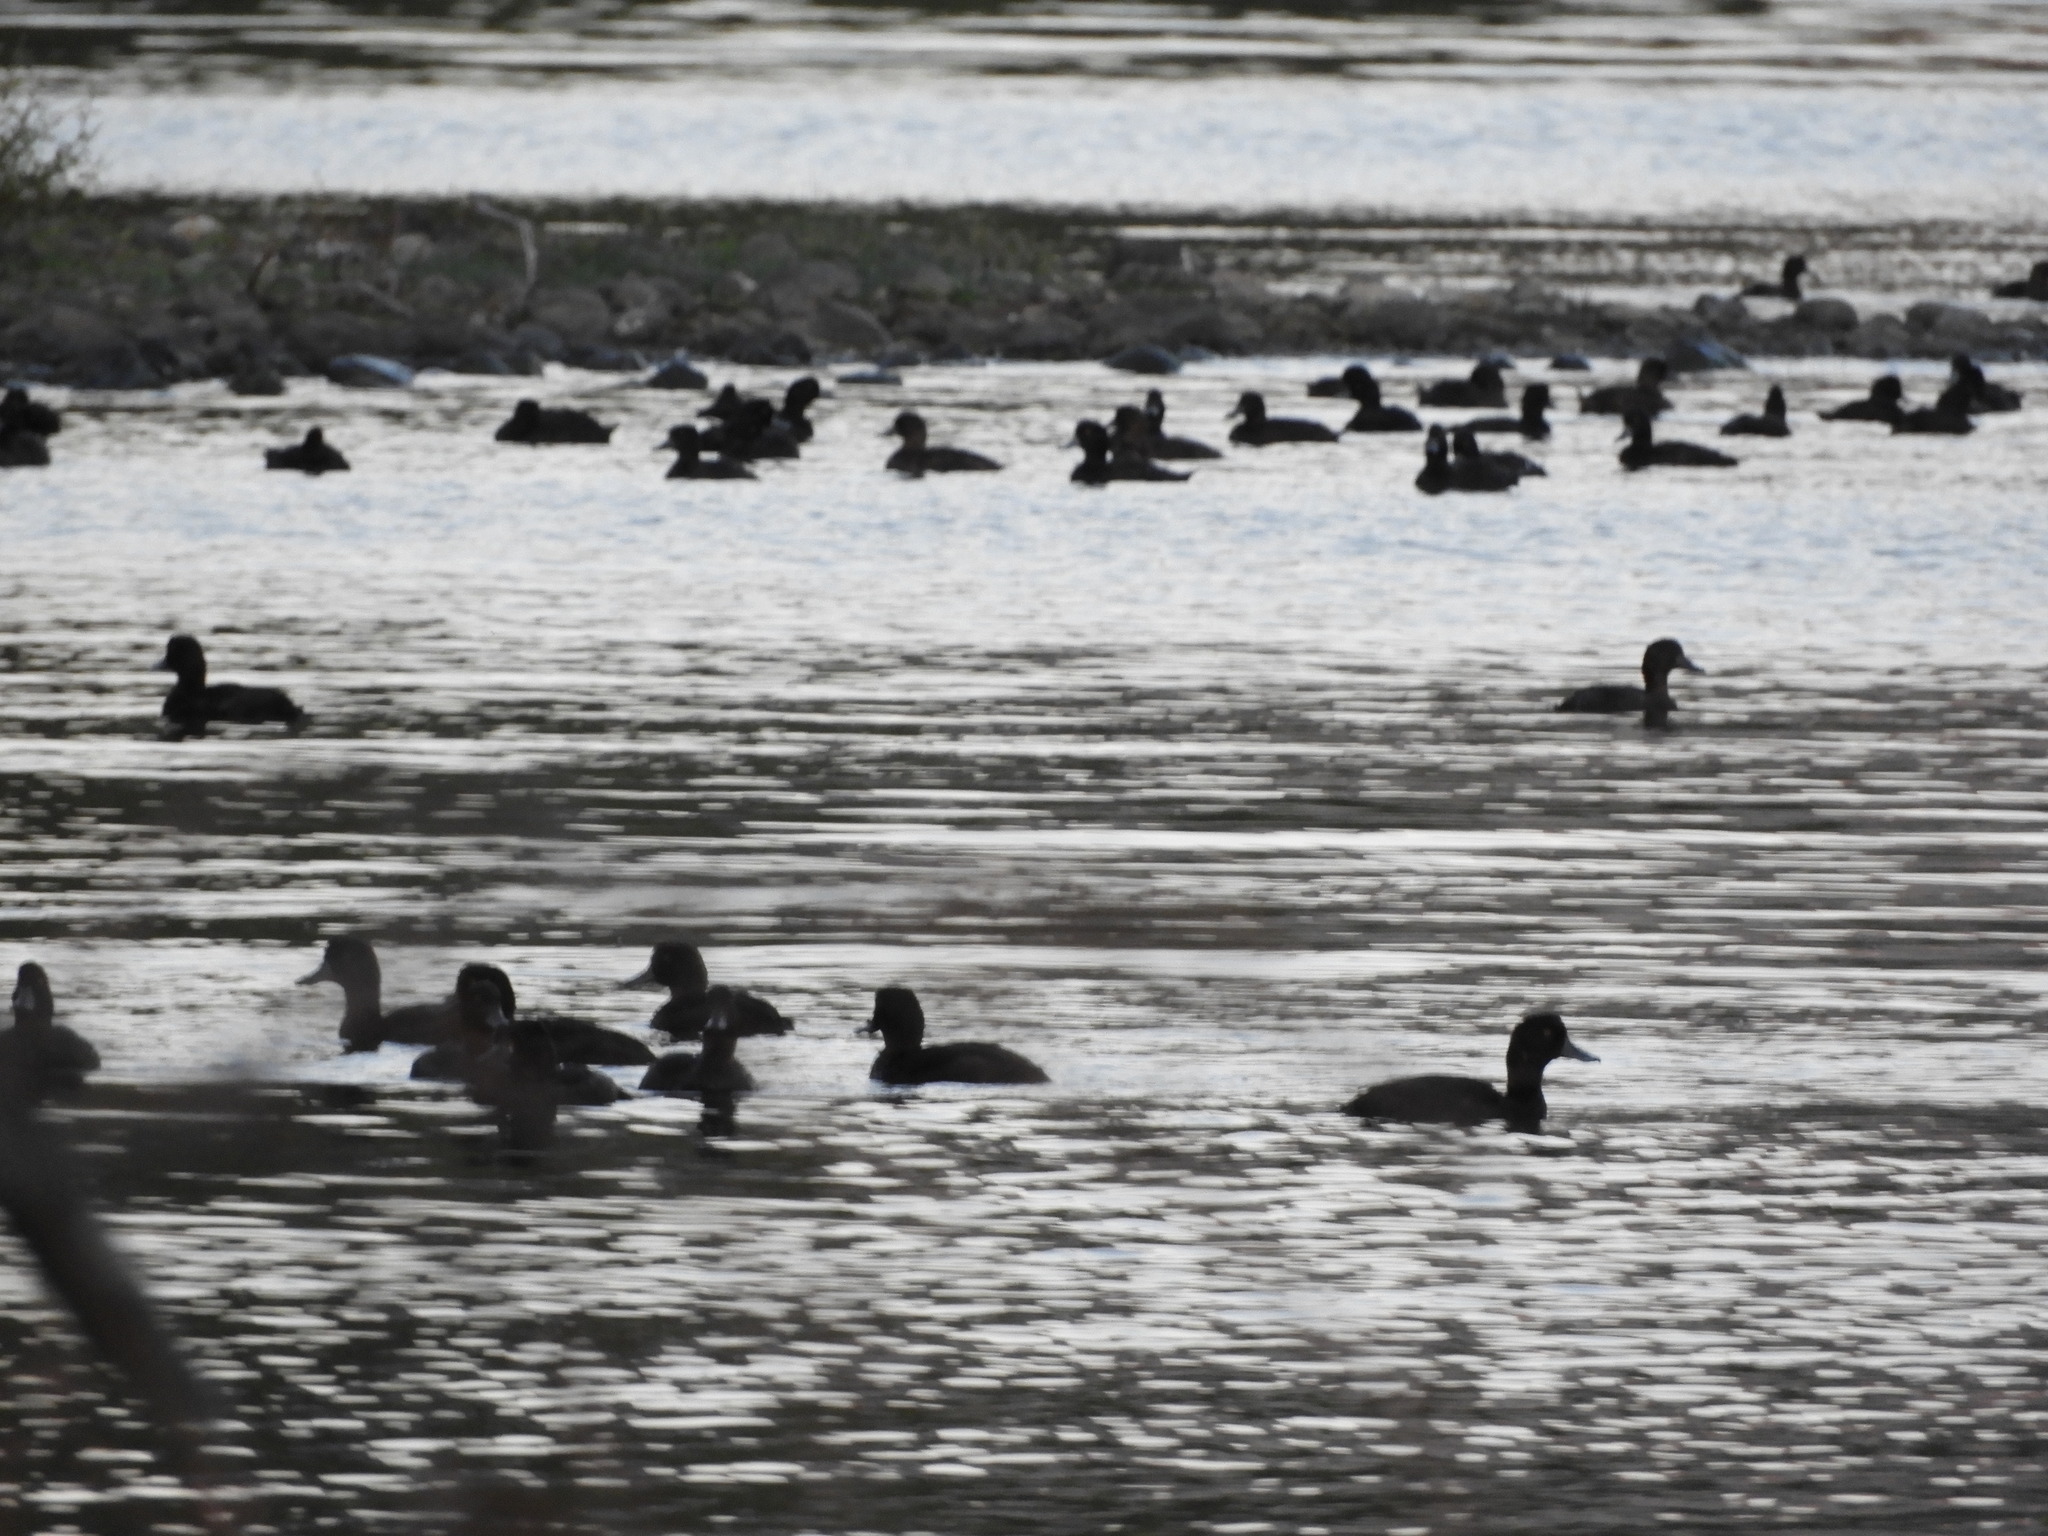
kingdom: Animalia
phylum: Chordata
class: Aves
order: Anseriformes
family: Anatidae
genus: Aythya
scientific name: Aythya novaeseelandiae
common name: New zealand scaup
